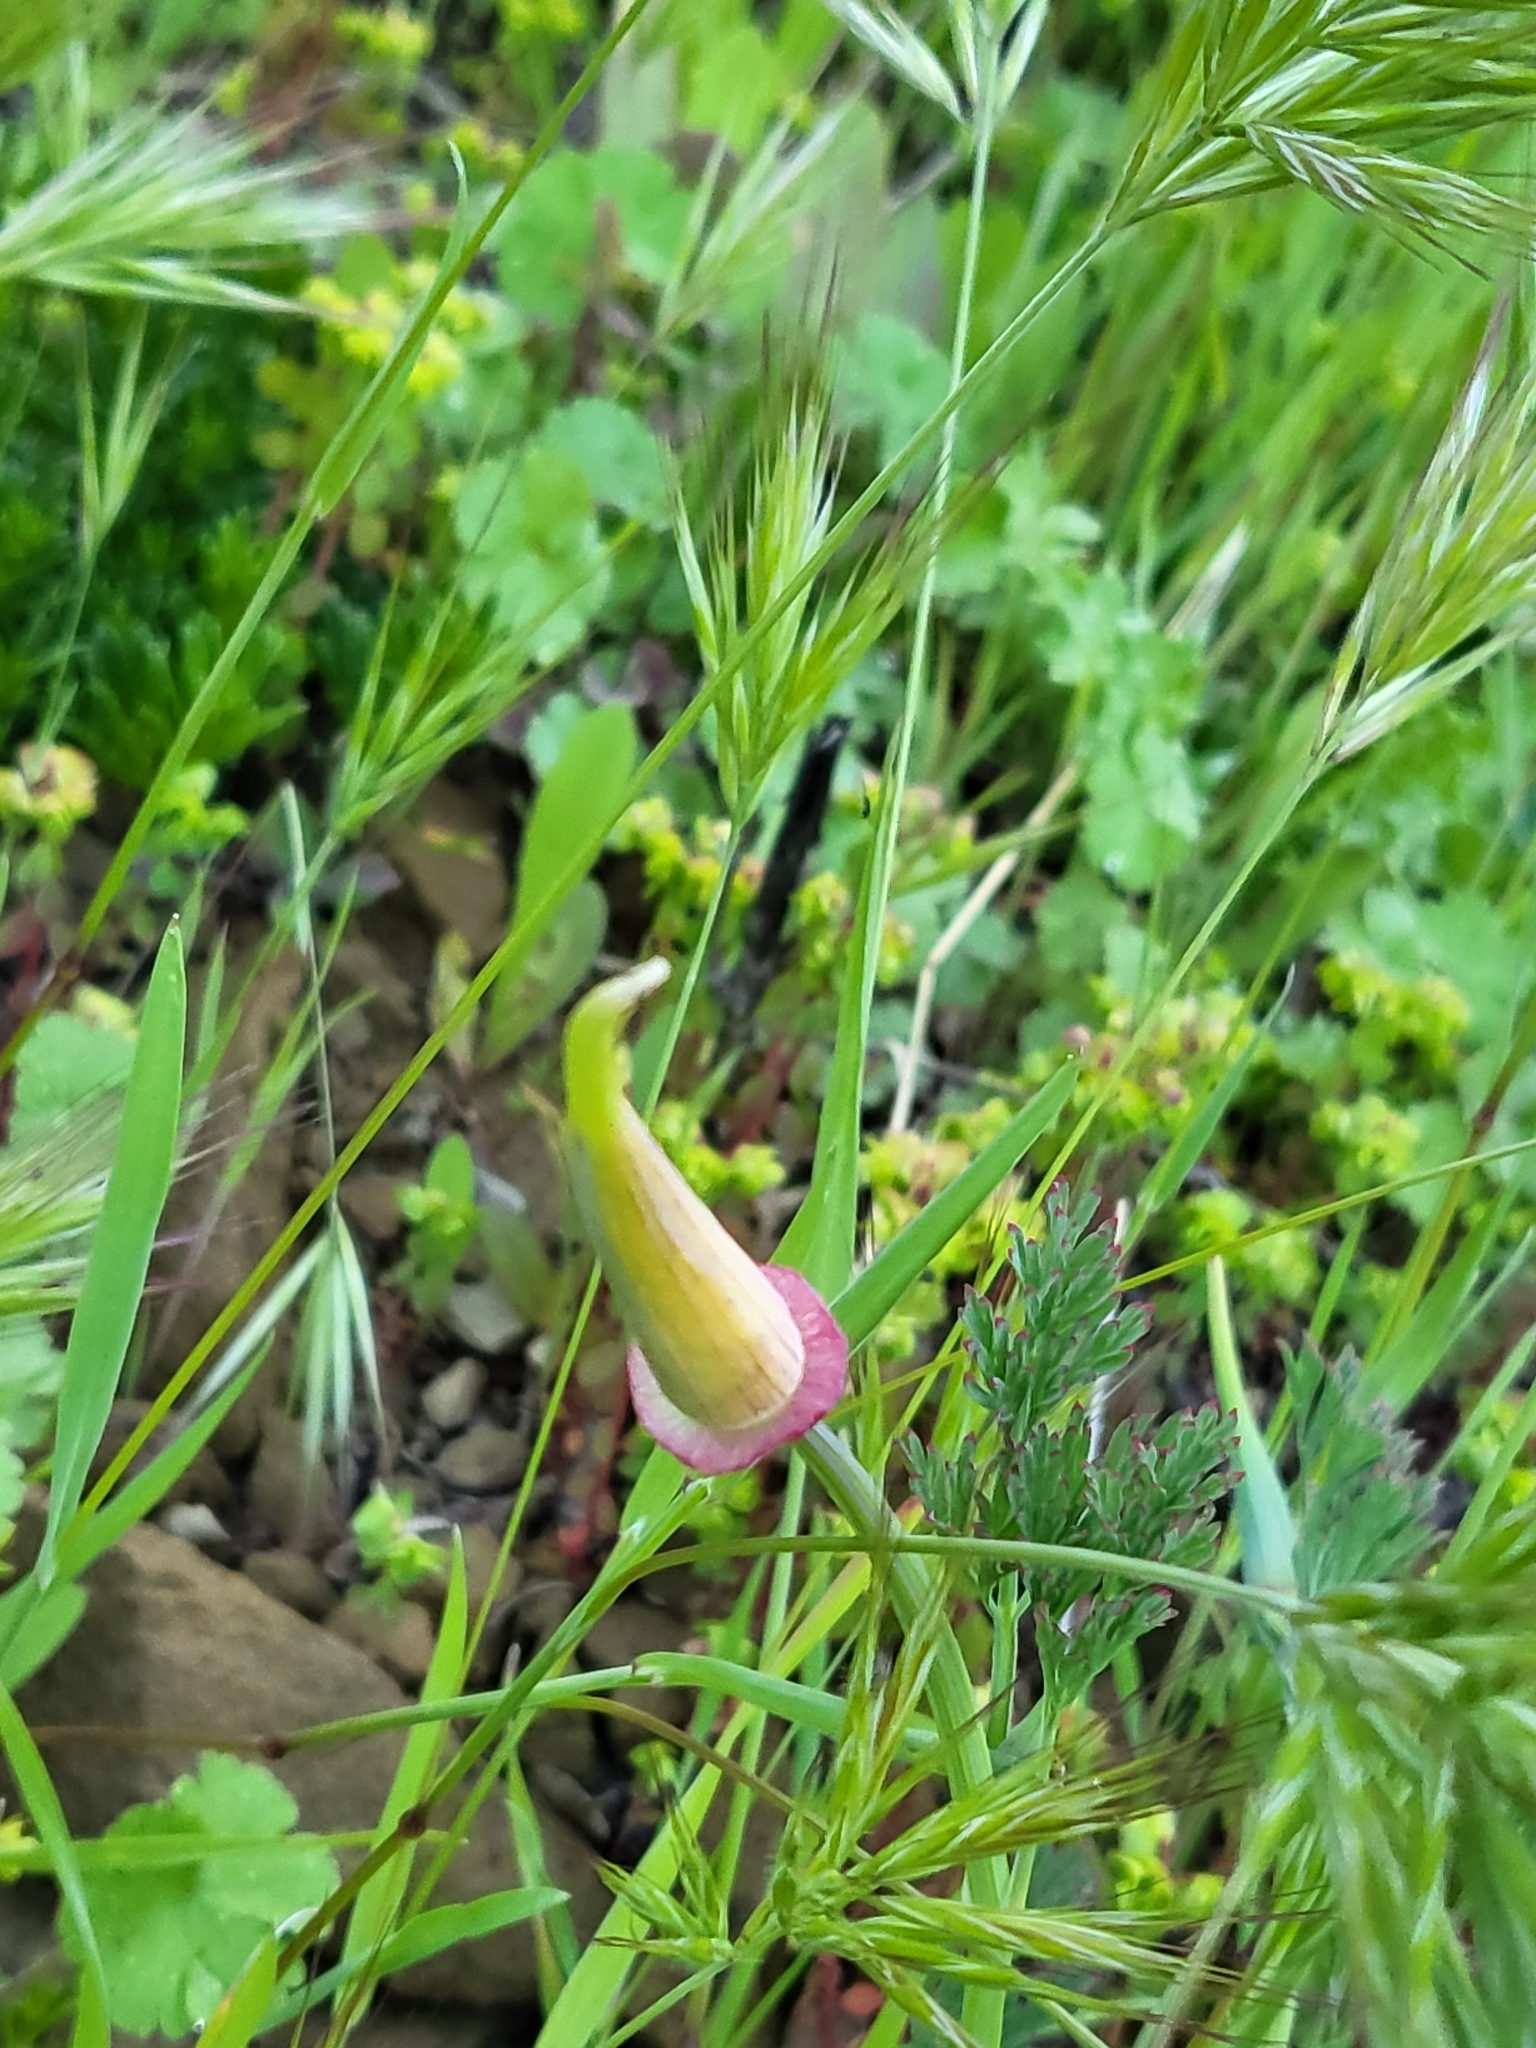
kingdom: Plantae
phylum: Tracheophyta
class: Magnoliopsida
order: Ranunculales
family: Papaveraceae
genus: Eschscholzia
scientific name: Eschscholzia californica
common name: California poppy
